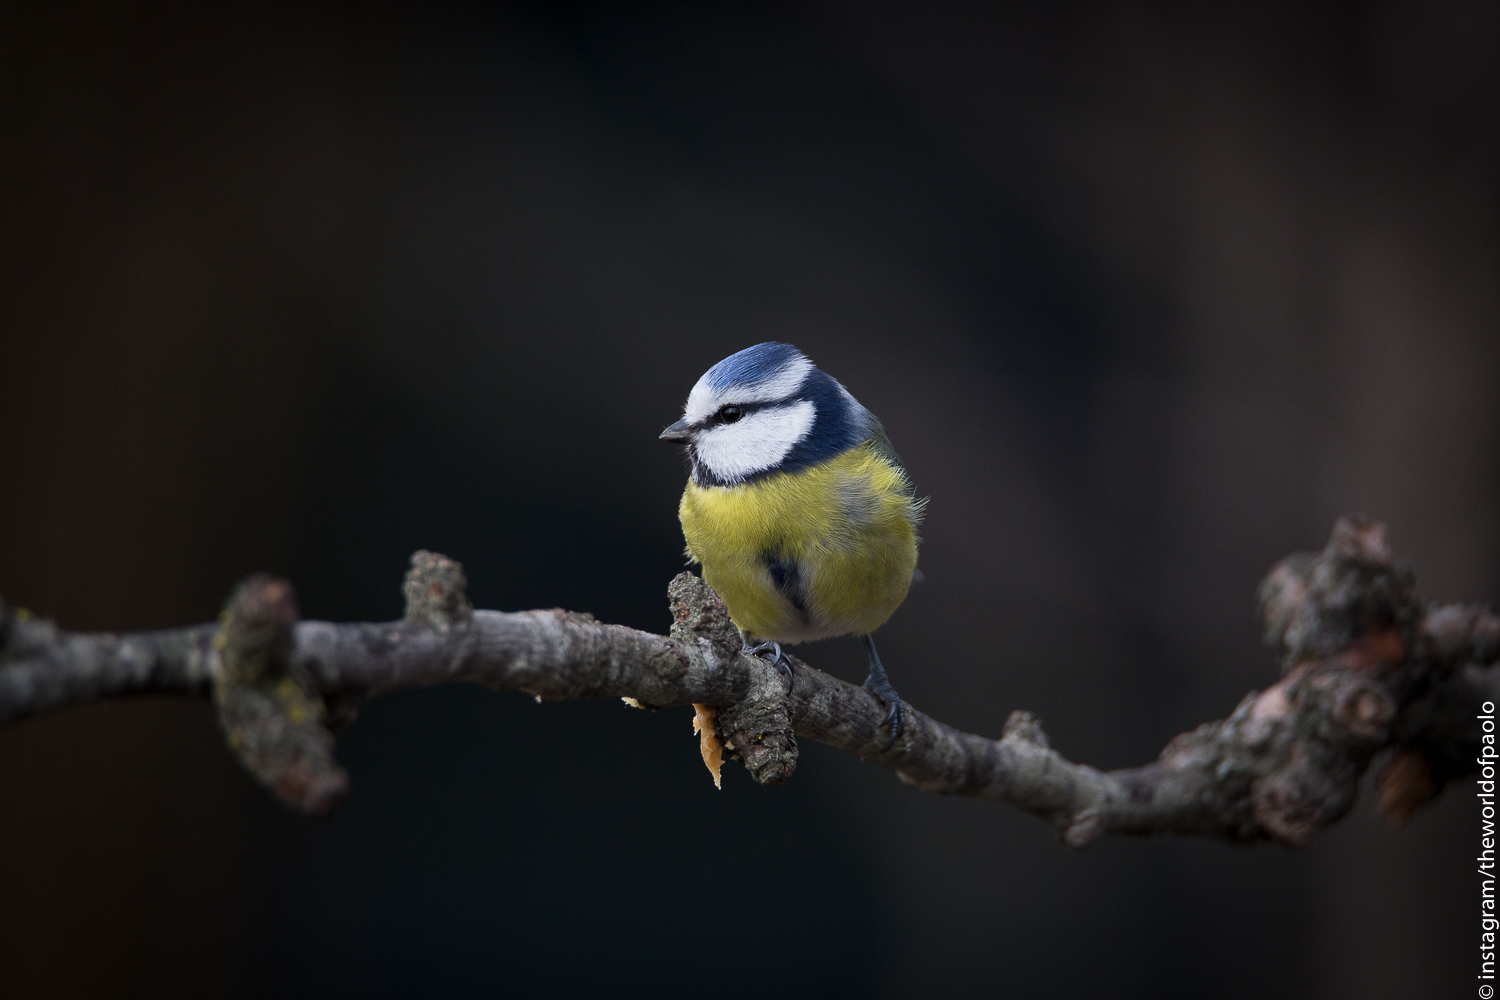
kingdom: Animalia
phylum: Chordata
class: Aves
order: Passeriformes
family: Paridae
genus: Cyanistes
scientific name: Cyanistes caeruleus
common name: Eurasian blue tit
